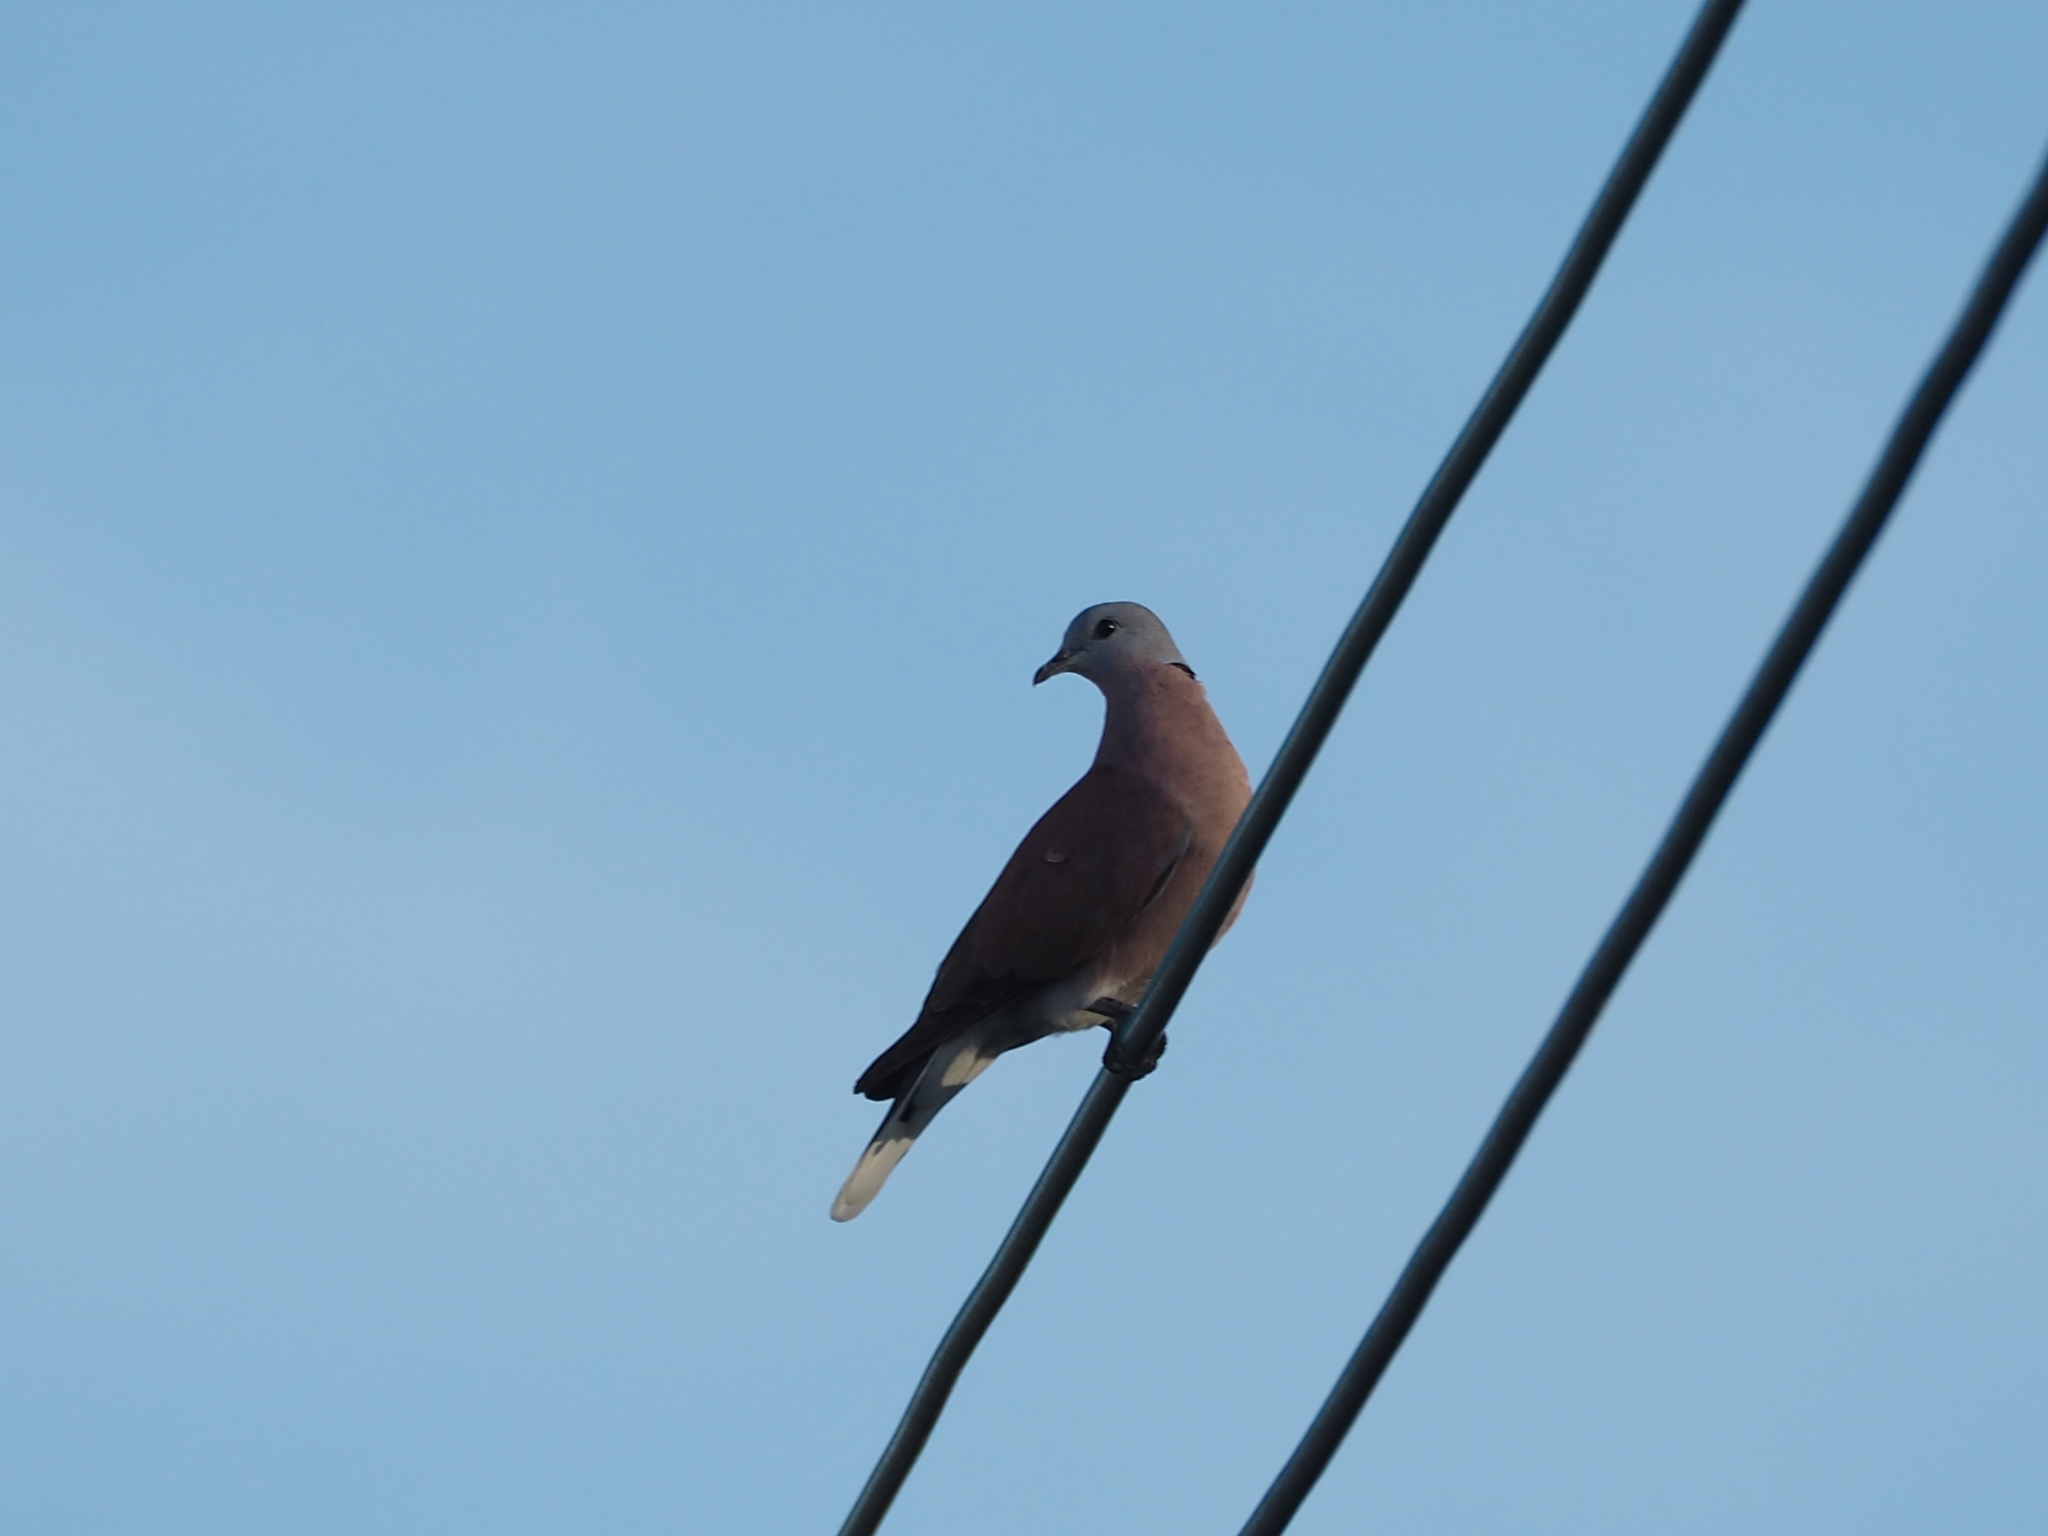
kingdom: Animalia
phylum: Chordata
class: Aves
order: Columbiformes
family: Columbidae
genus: Streptopelia
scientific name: Streptopelia tranquebarica
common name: Red turtle dove
